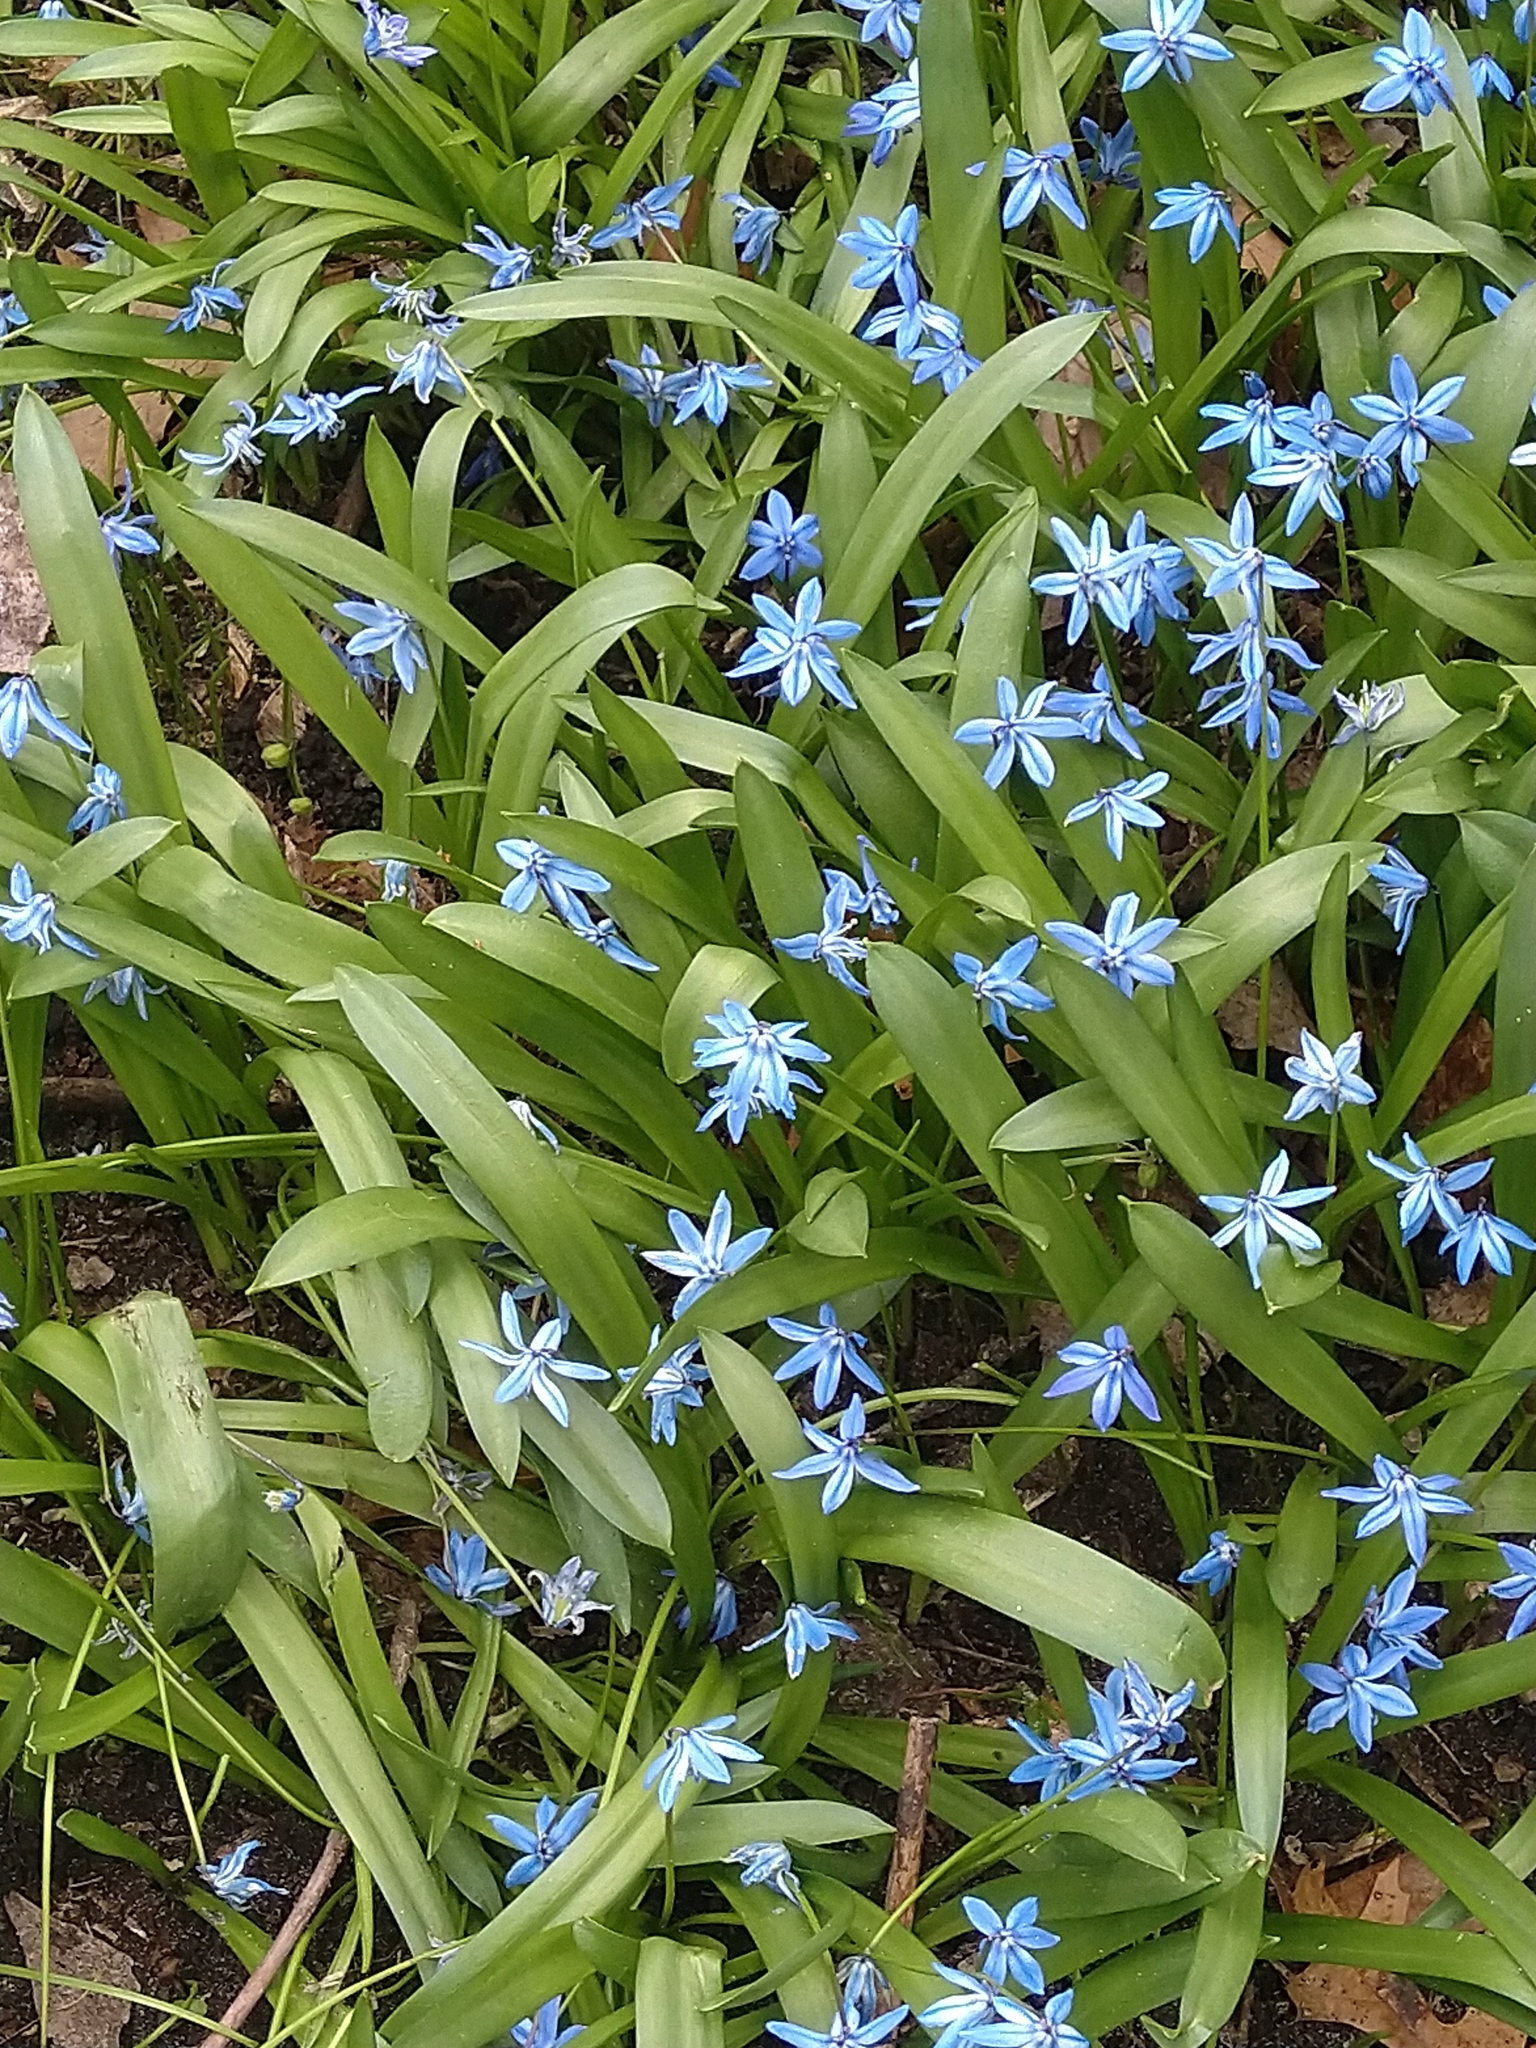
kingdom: Plantae
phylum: Tracheophyta
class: Liliopsida
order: Asparagales
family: Asparagaceae
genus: Scilla
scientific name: Scilla siberica
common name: Siberian squill
